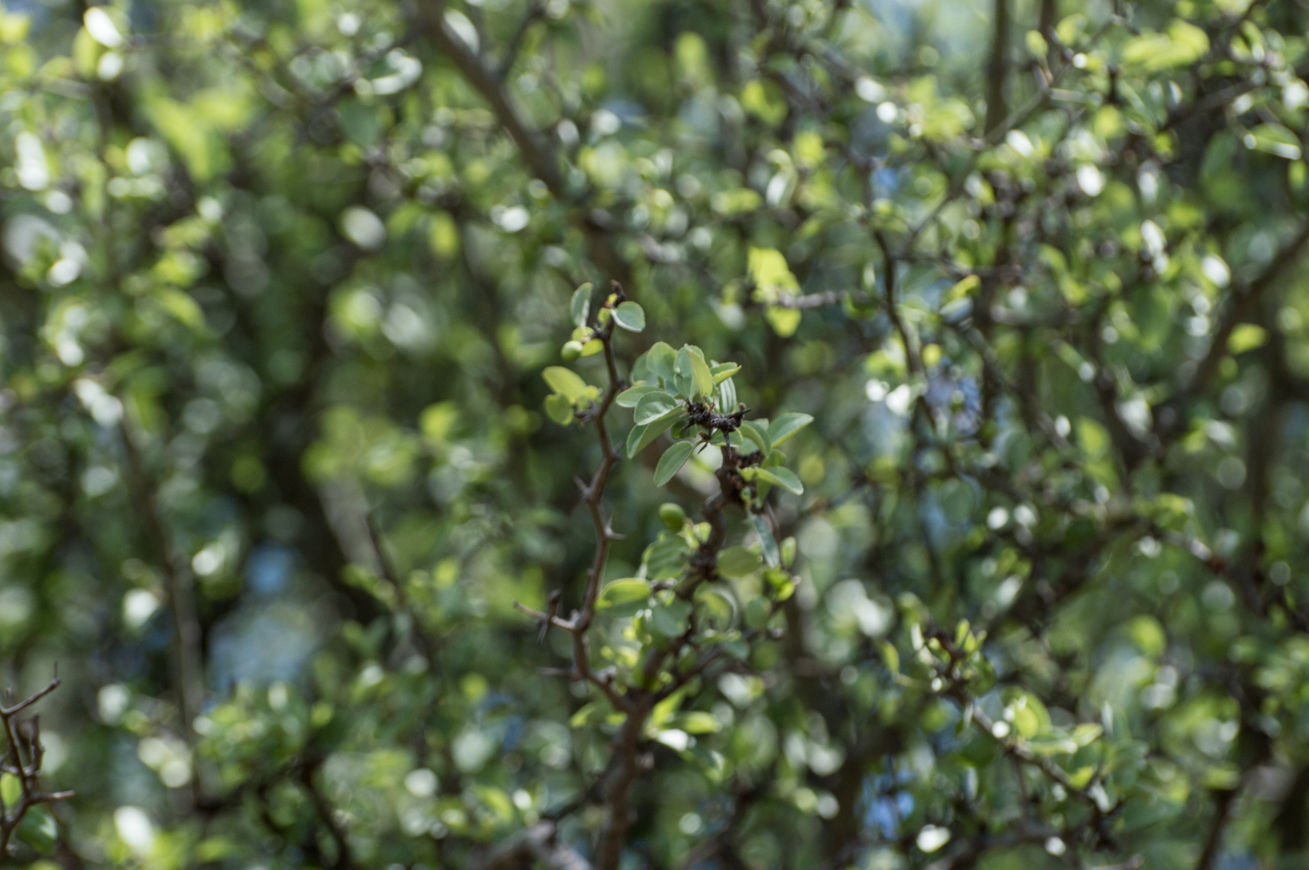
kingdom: Plantae
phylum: Tracheophyta
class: Magnoliopsida
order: Rosales
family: Rhamnaceae
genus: Sarcomphalus
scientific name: Sarcomphalus mistol
